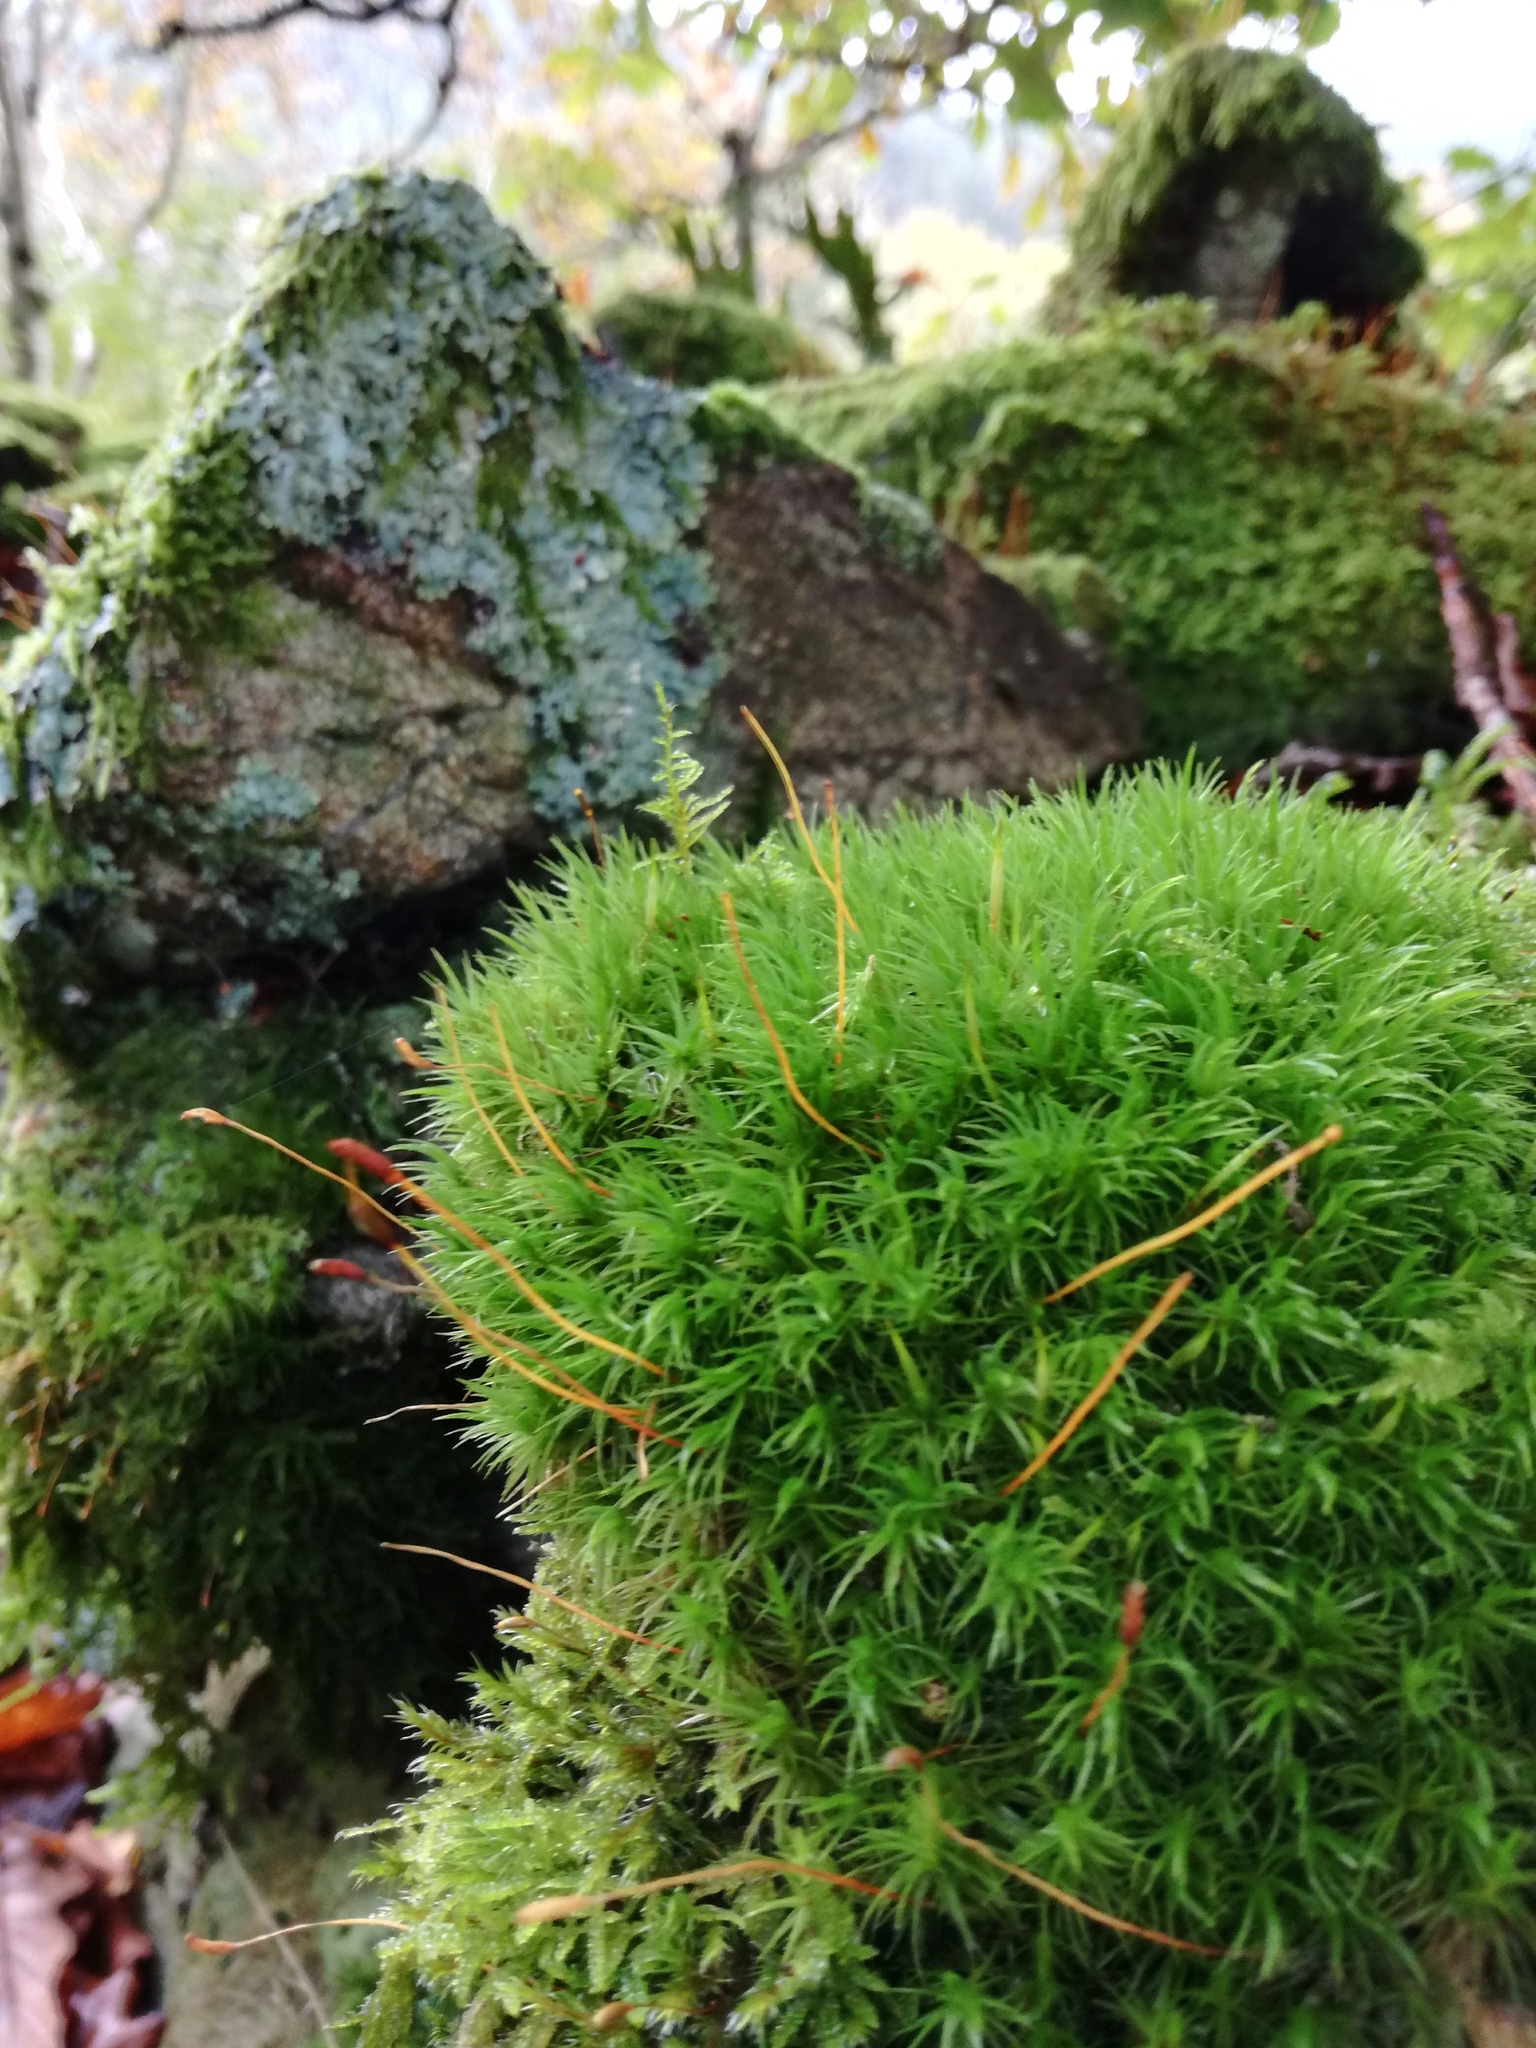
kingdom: Plantae
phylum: Bryophyta
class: Bryopsida
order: Dicranales
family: Dicranaceae
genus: Dicranum
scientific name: Dicranum scoparium
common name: Broom fork-moss
